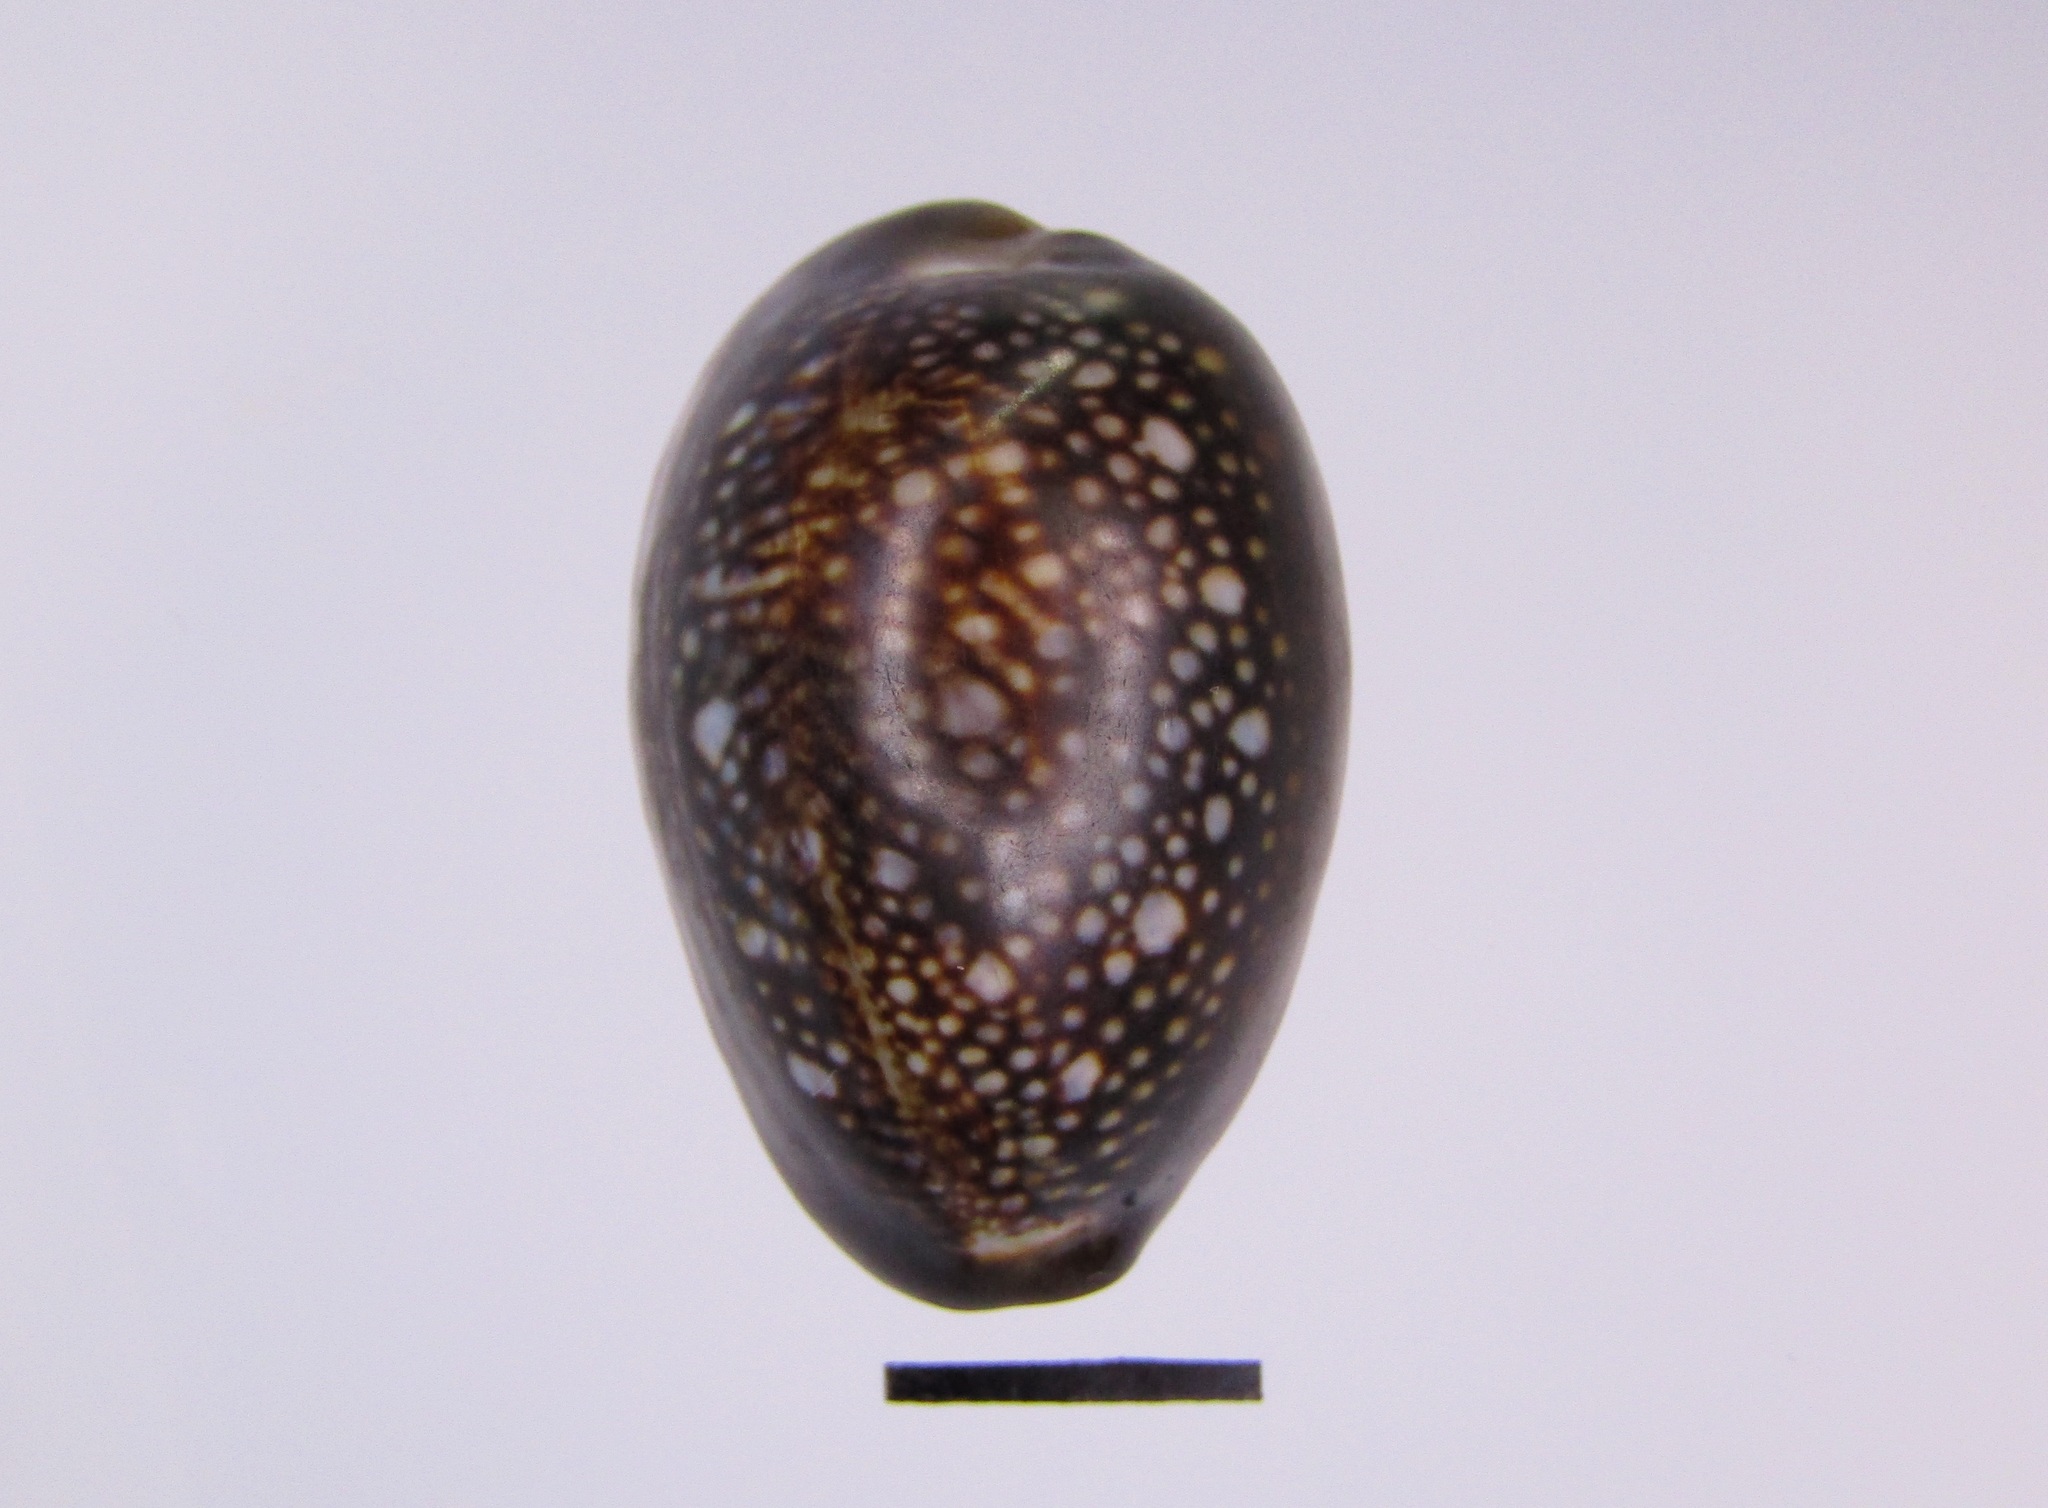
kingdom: Animalia
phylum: Mollusca
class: Gastropoda
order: Littorinimorpha
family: Cypraeidae
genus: Monetaria
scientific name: Monetaria caputserpentis
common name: Serpent's head cowrie
